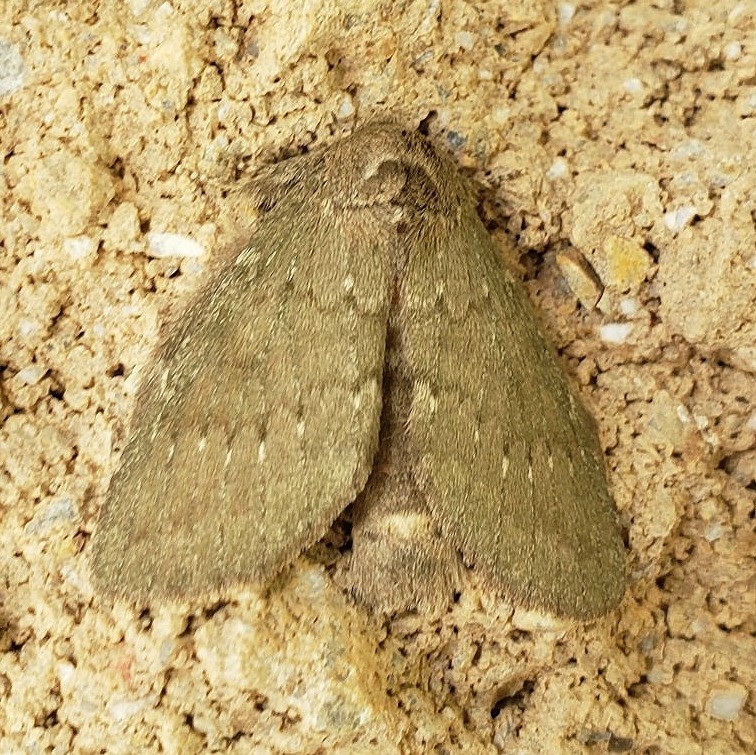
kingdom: Animalia
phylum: Arthropoda
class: Insecta
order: Lepidoptera
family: Notodontidae
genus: Misogada
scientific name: Misogada unicolor
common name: Drab prominent
